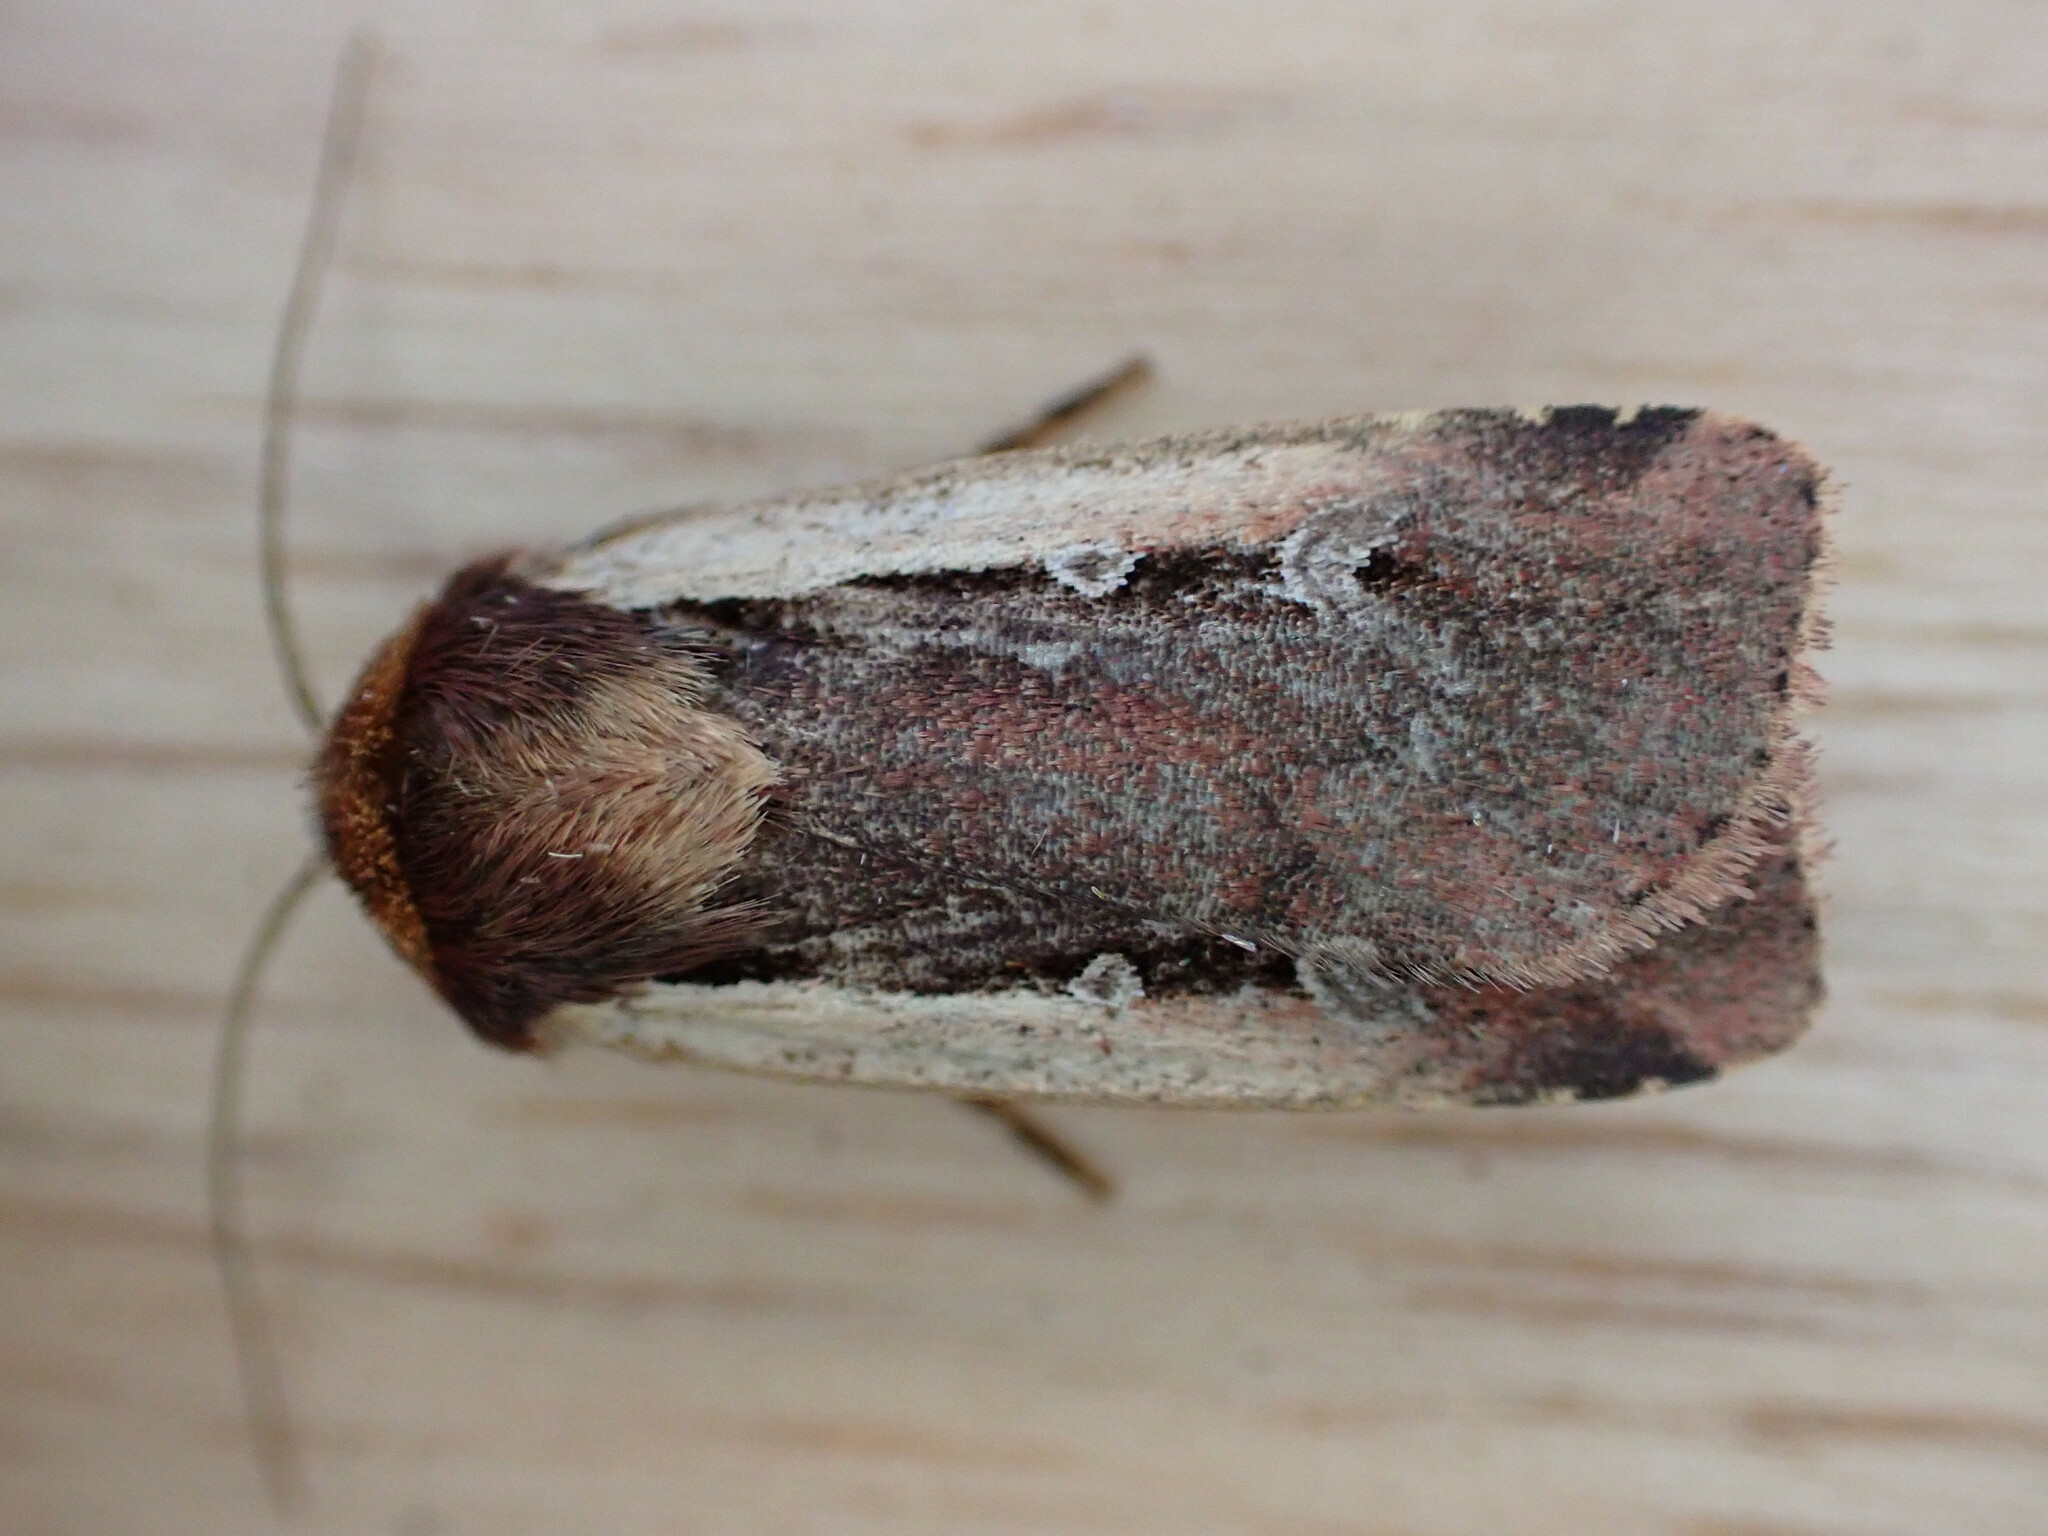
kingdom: Animalia
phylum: Arthropoda
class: Insecta
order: Lepidoptera
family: Noctuidae
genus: Ochropleura
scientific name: Ochropleura plecta
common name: Flame shoulder
